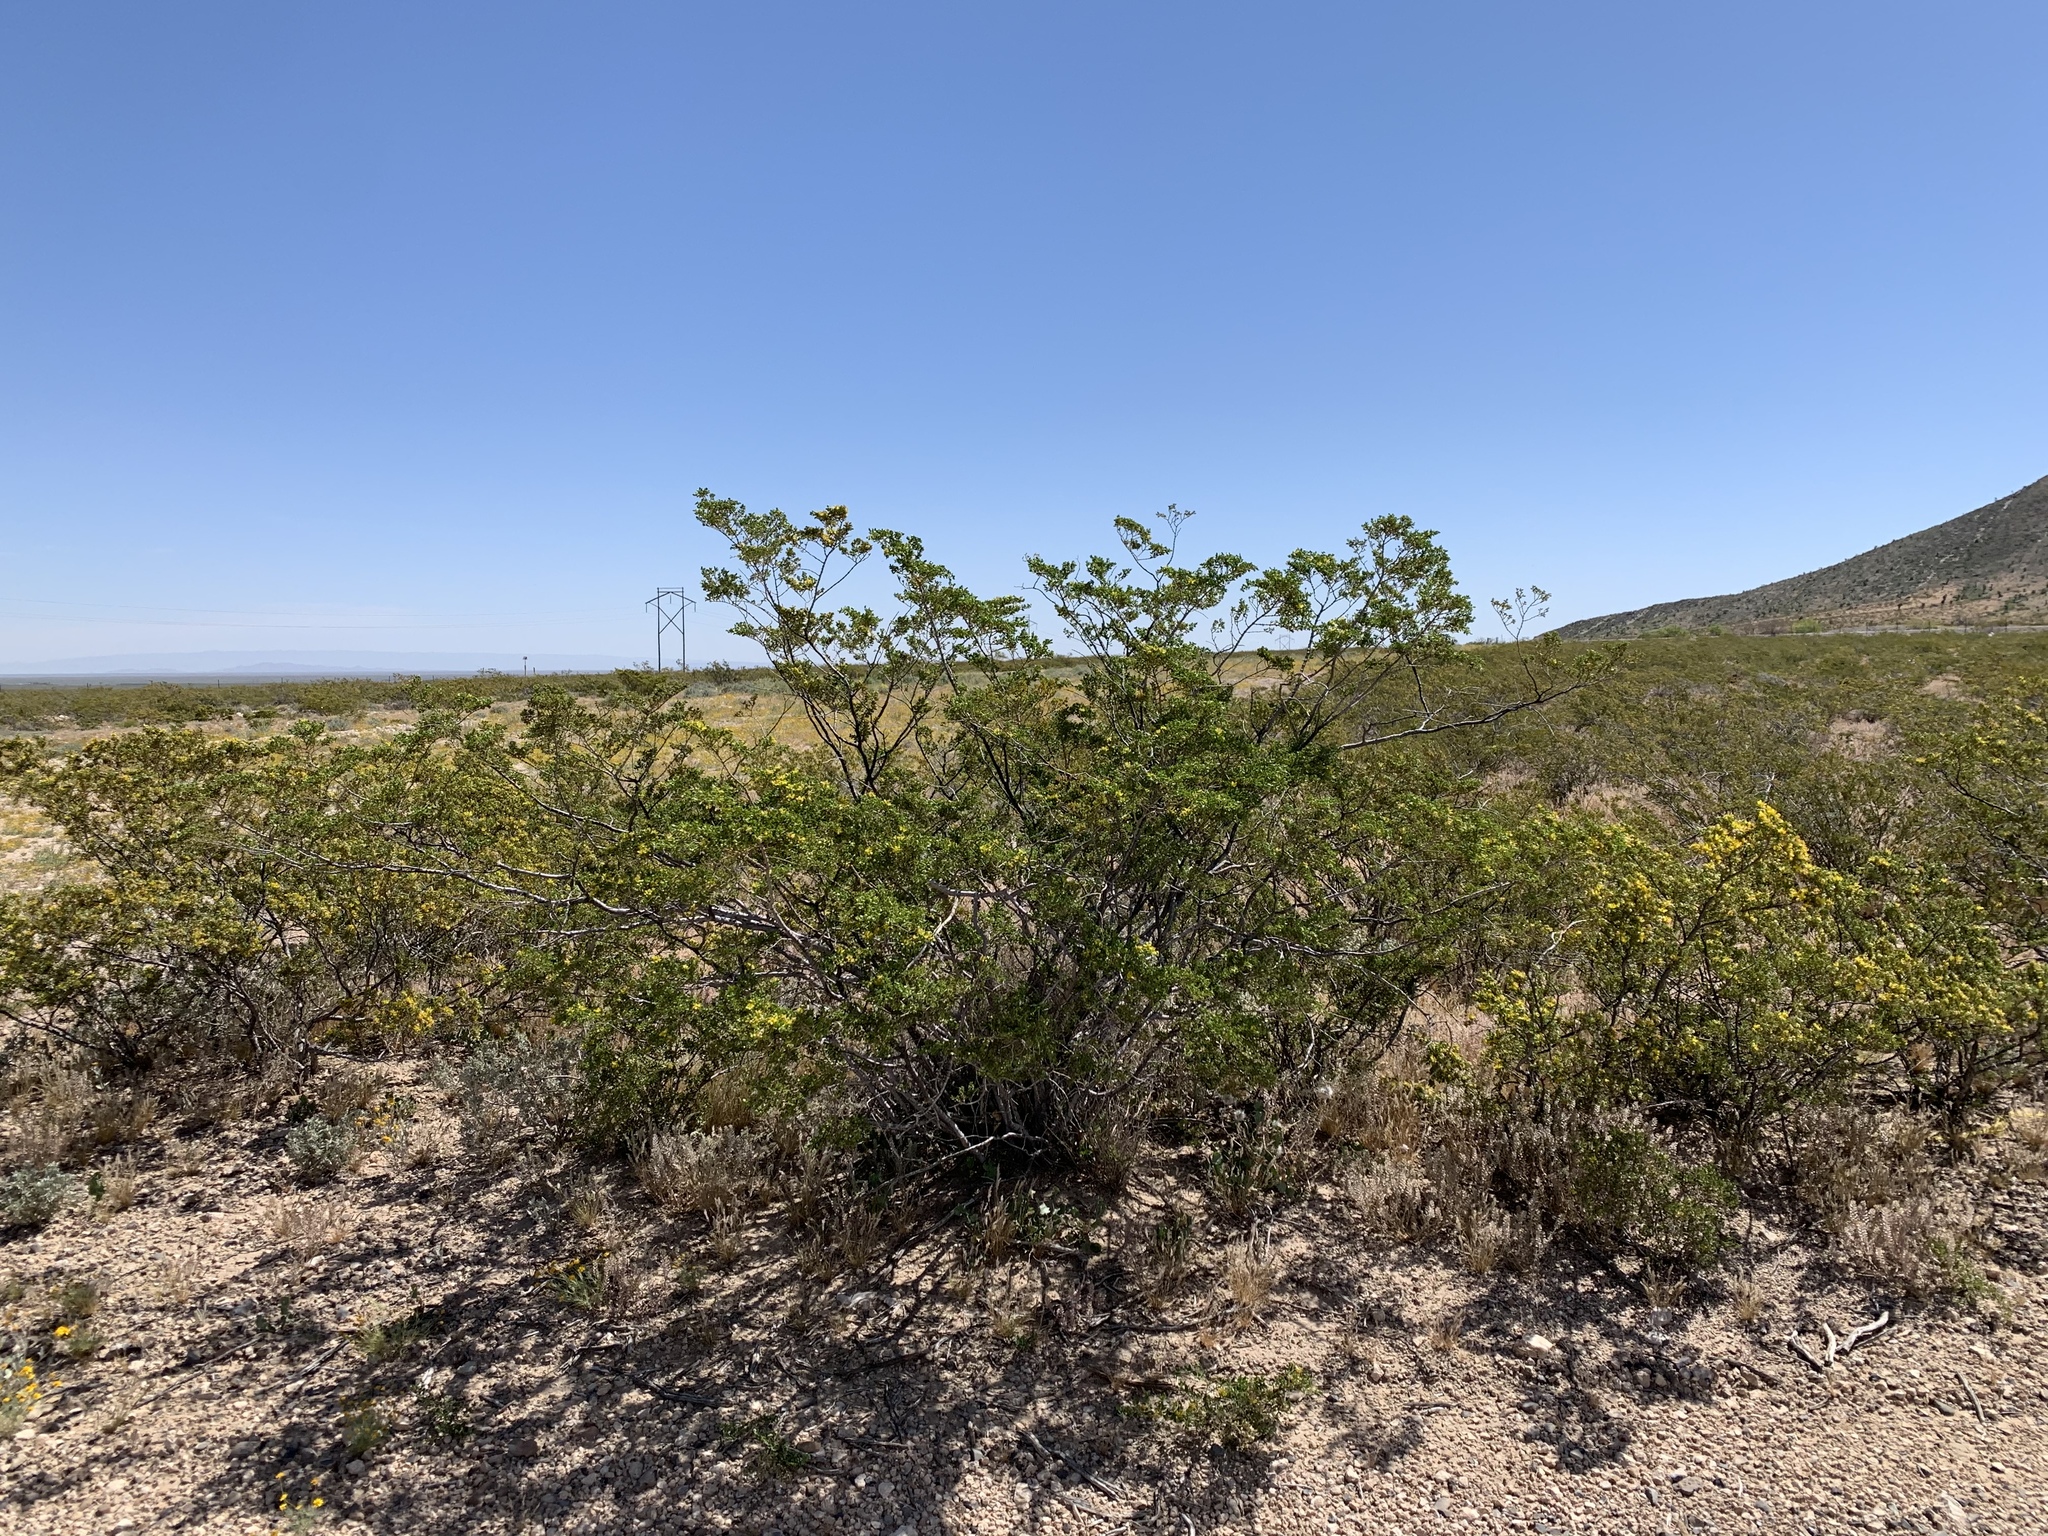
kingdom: Plantae
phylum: Tracheophyta
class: Magnoliopsida
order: Zygophyllales
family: Zygophyllaceae
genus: Larrea
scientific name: Larrea tridentata
